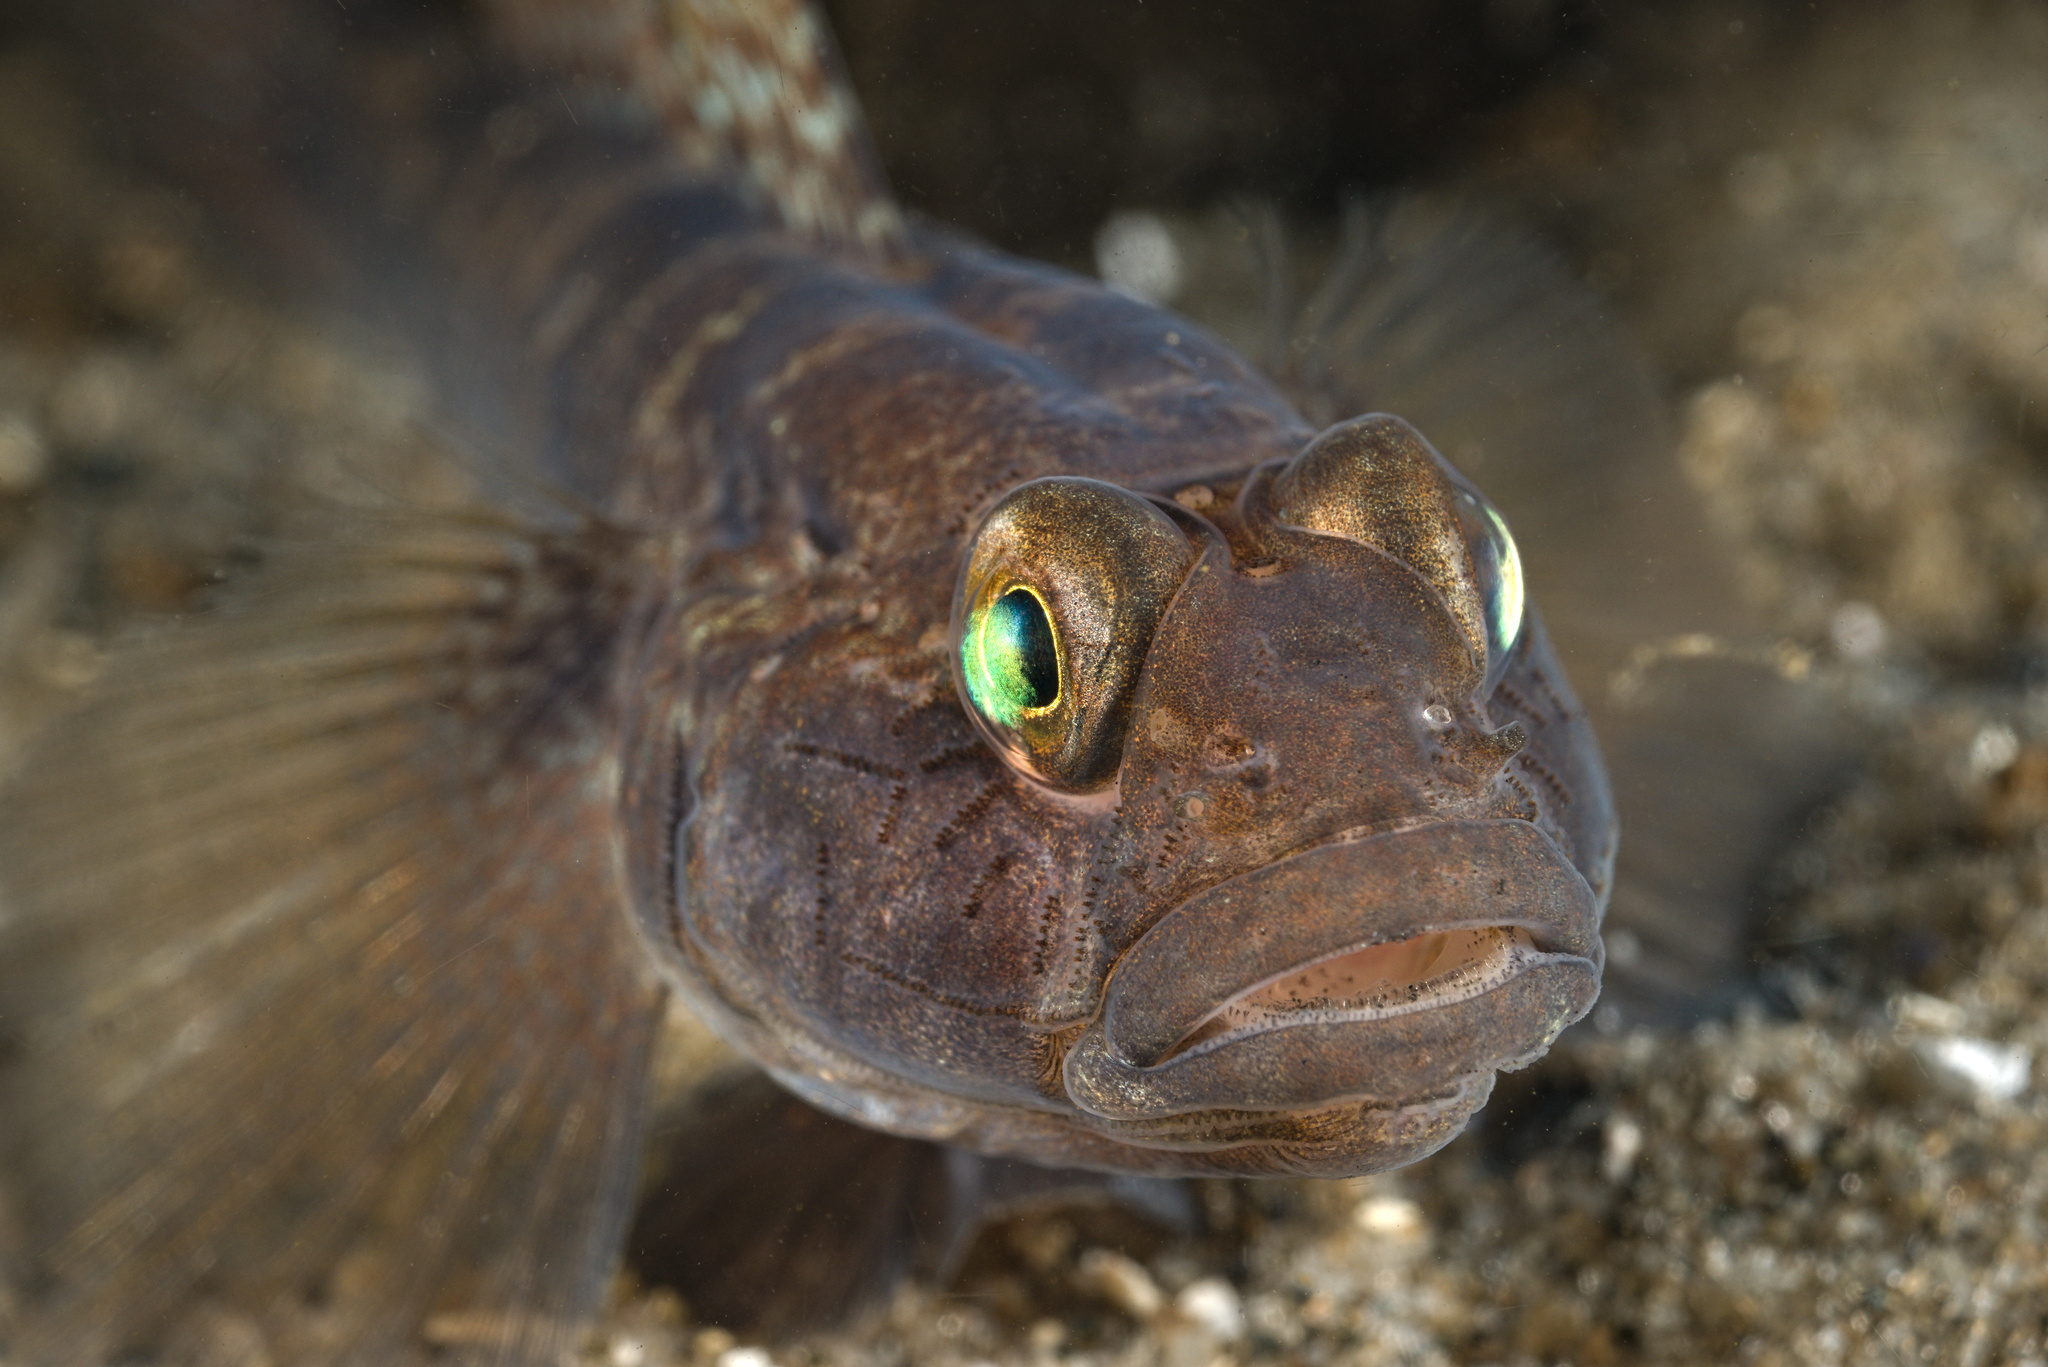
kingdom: Animalia
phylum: Chordata
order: Perciformes
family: Gobiidae
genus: Gobius
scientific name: Gobius niger
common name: Black goby
